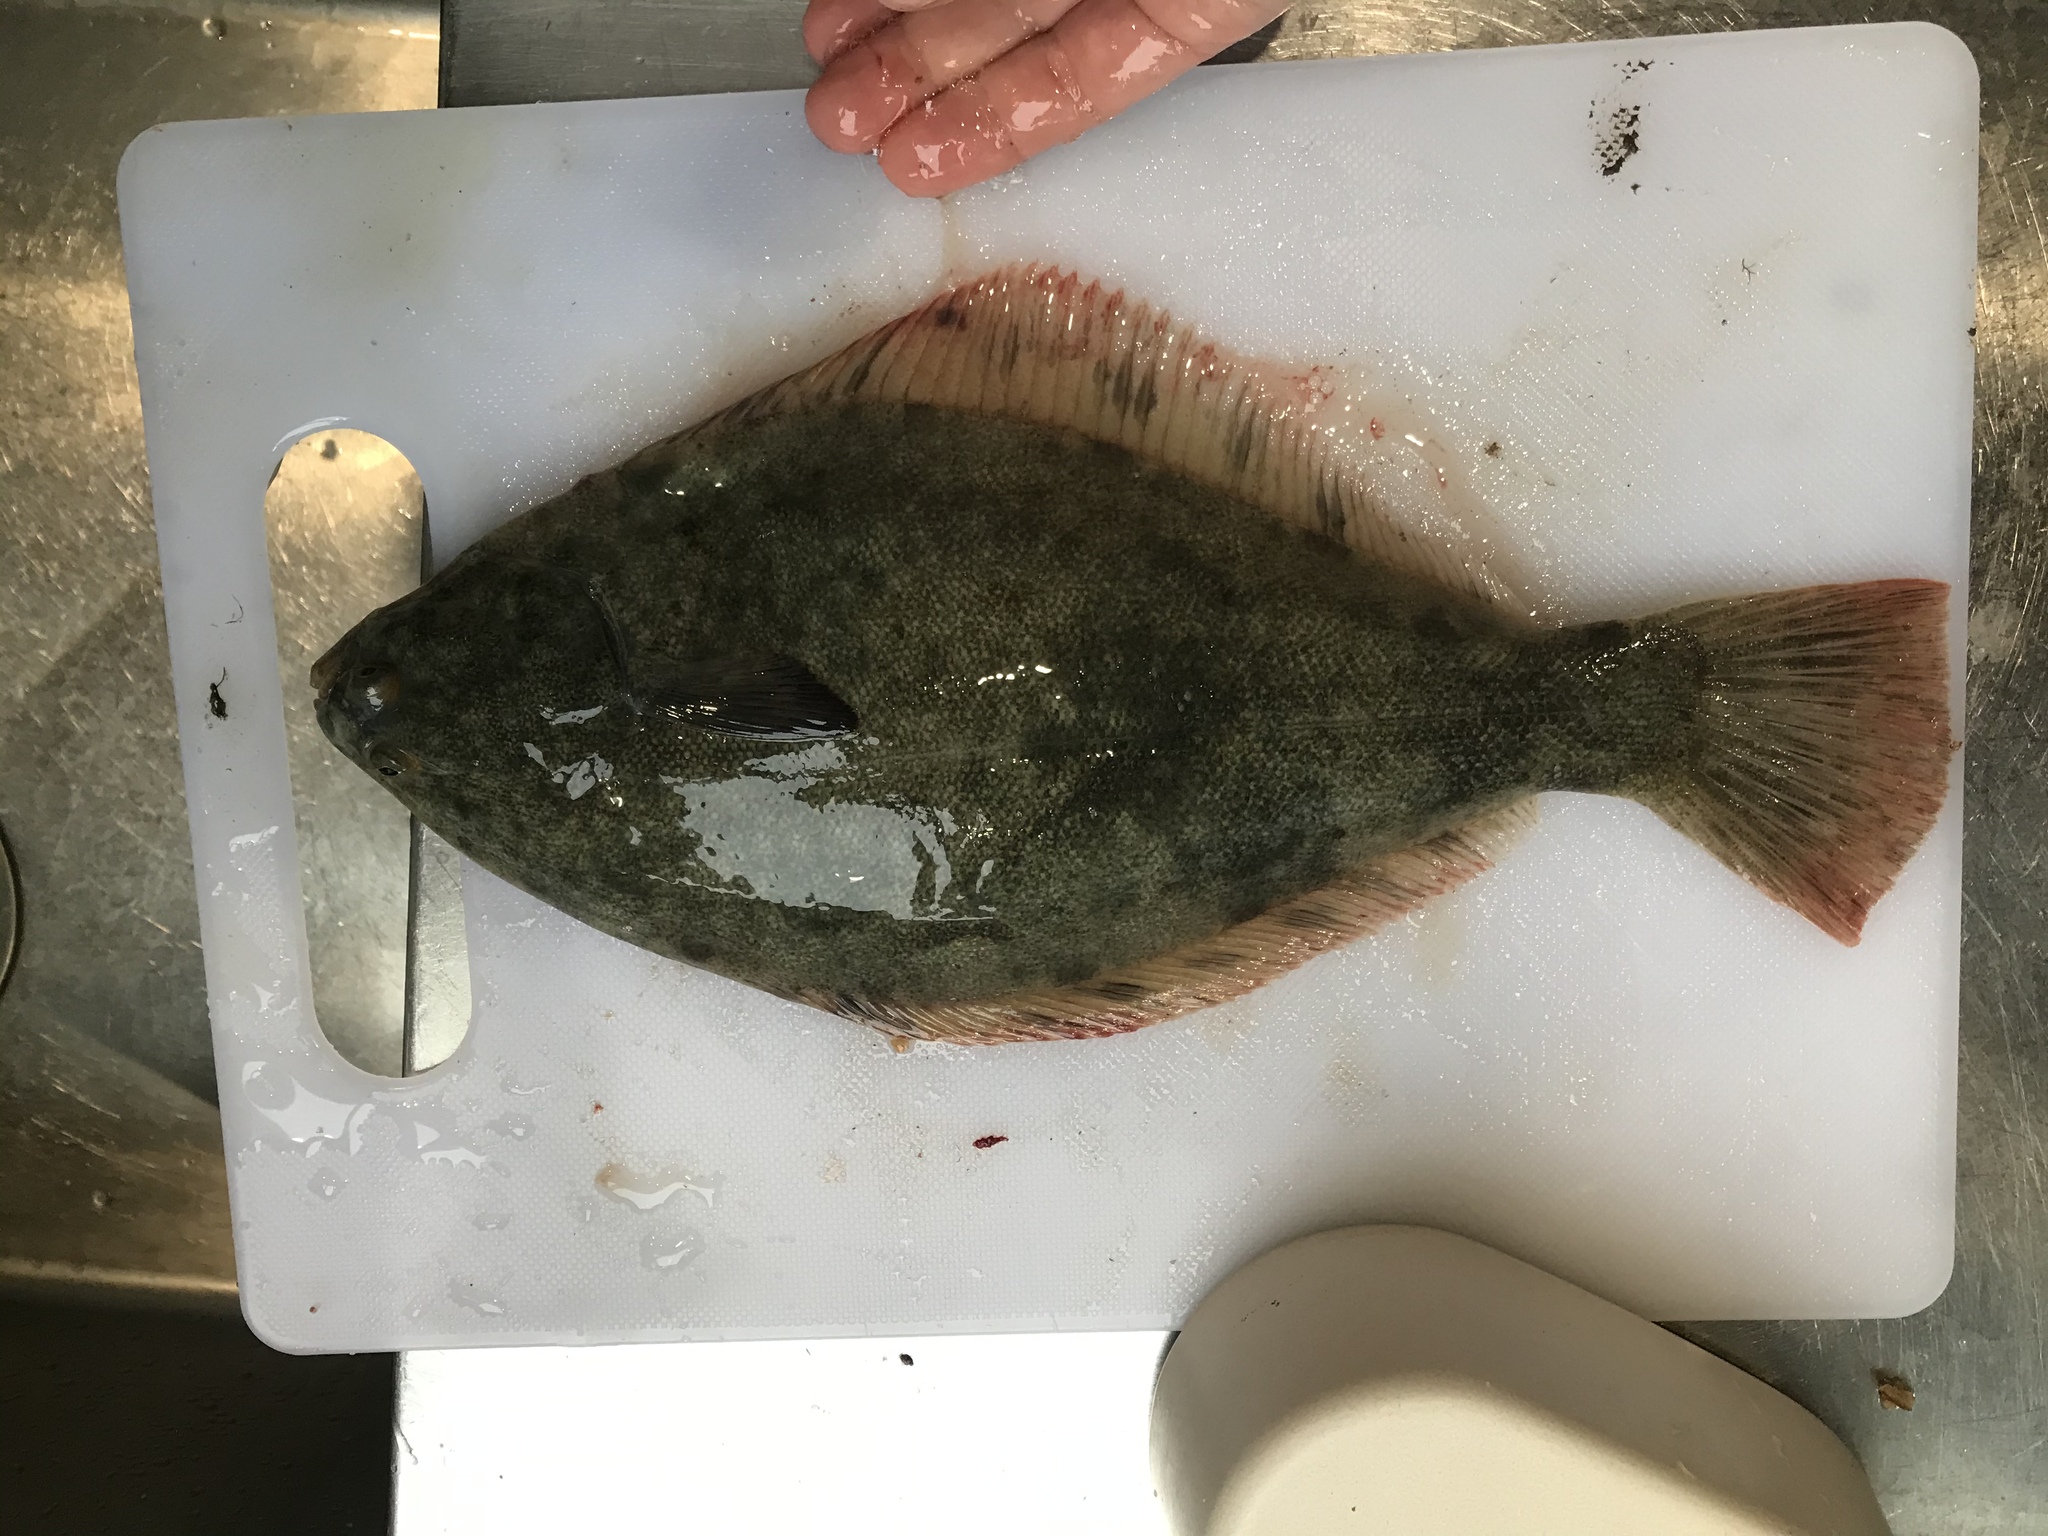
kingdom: Animalia
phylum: Chordata
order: Pleuronectiformes
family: Pleuronectidae
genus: Rhombosolea
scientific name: Rhombosolea leporina
